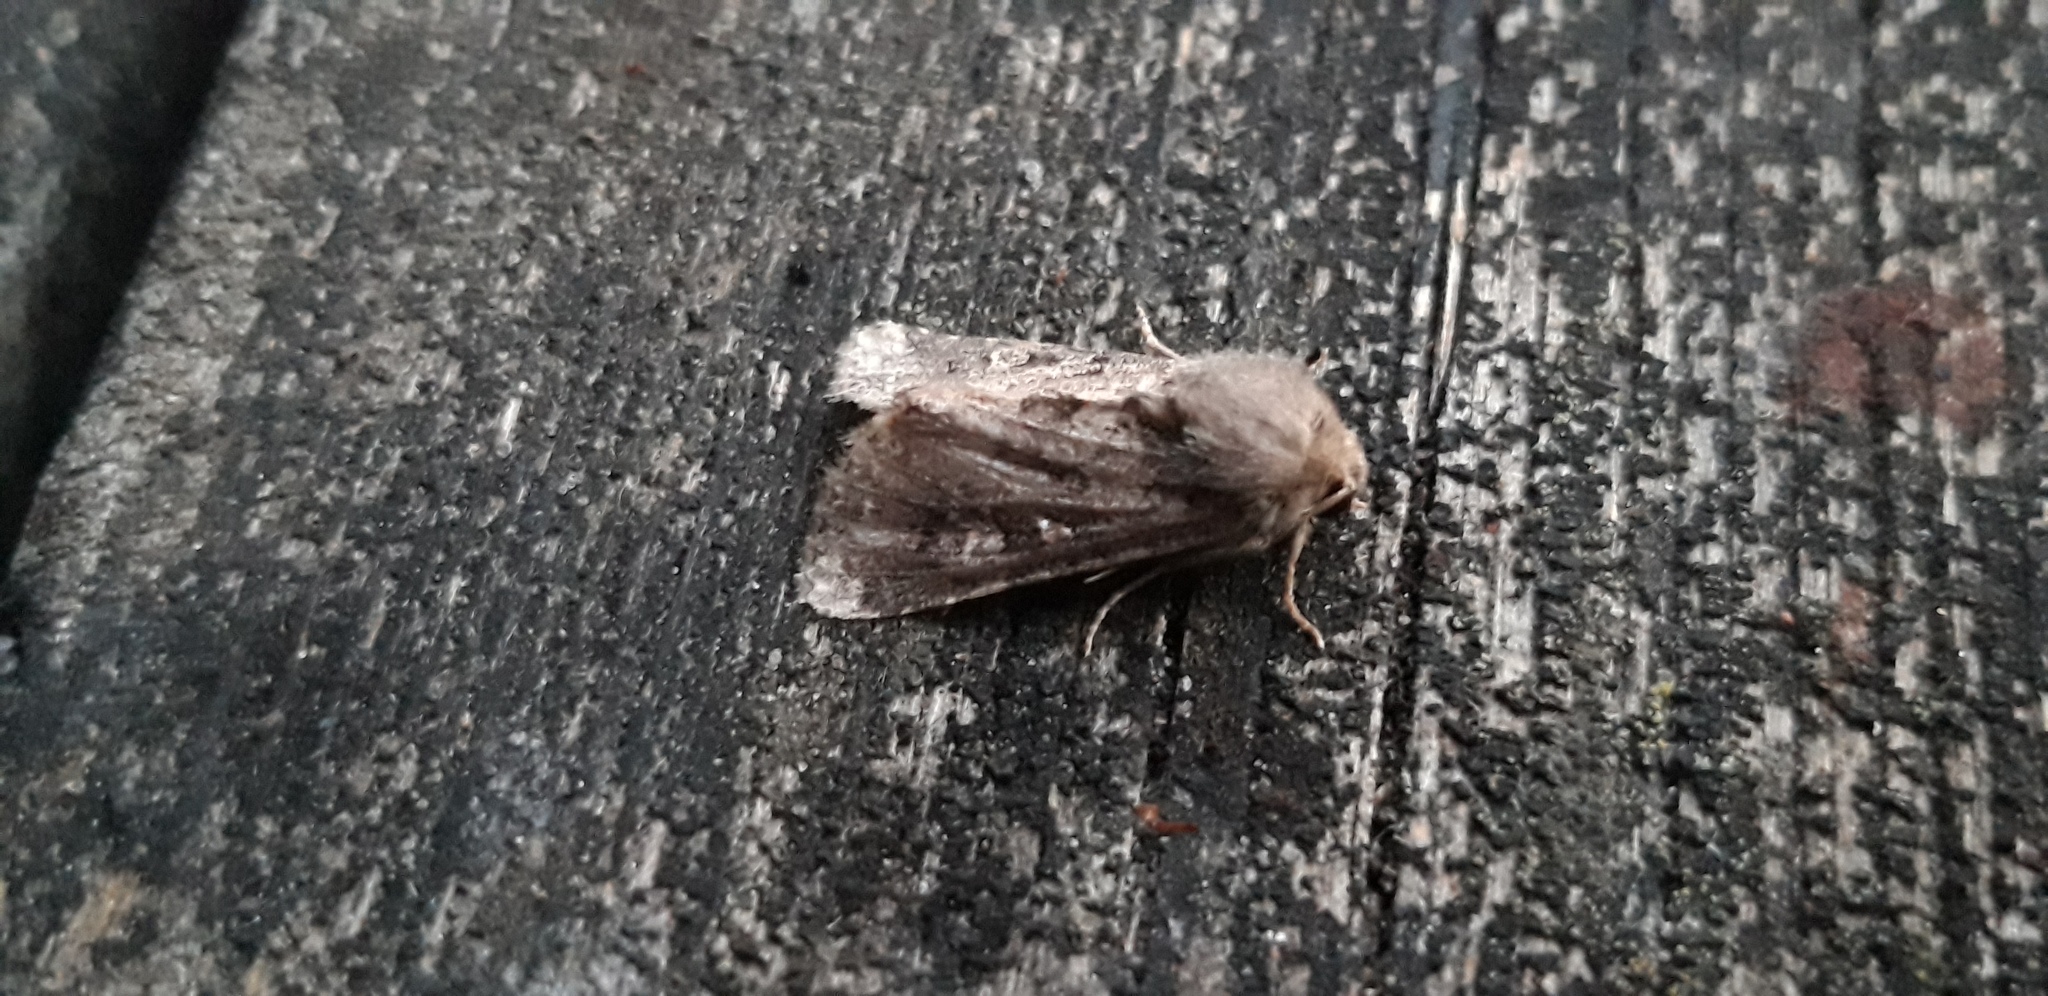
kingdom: Animalia
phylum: Arthropoda
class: Insecta
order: Lepidoptera
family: Noctuidae
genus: Luperina
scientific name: Luperina testacea
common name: Flounced rustic
